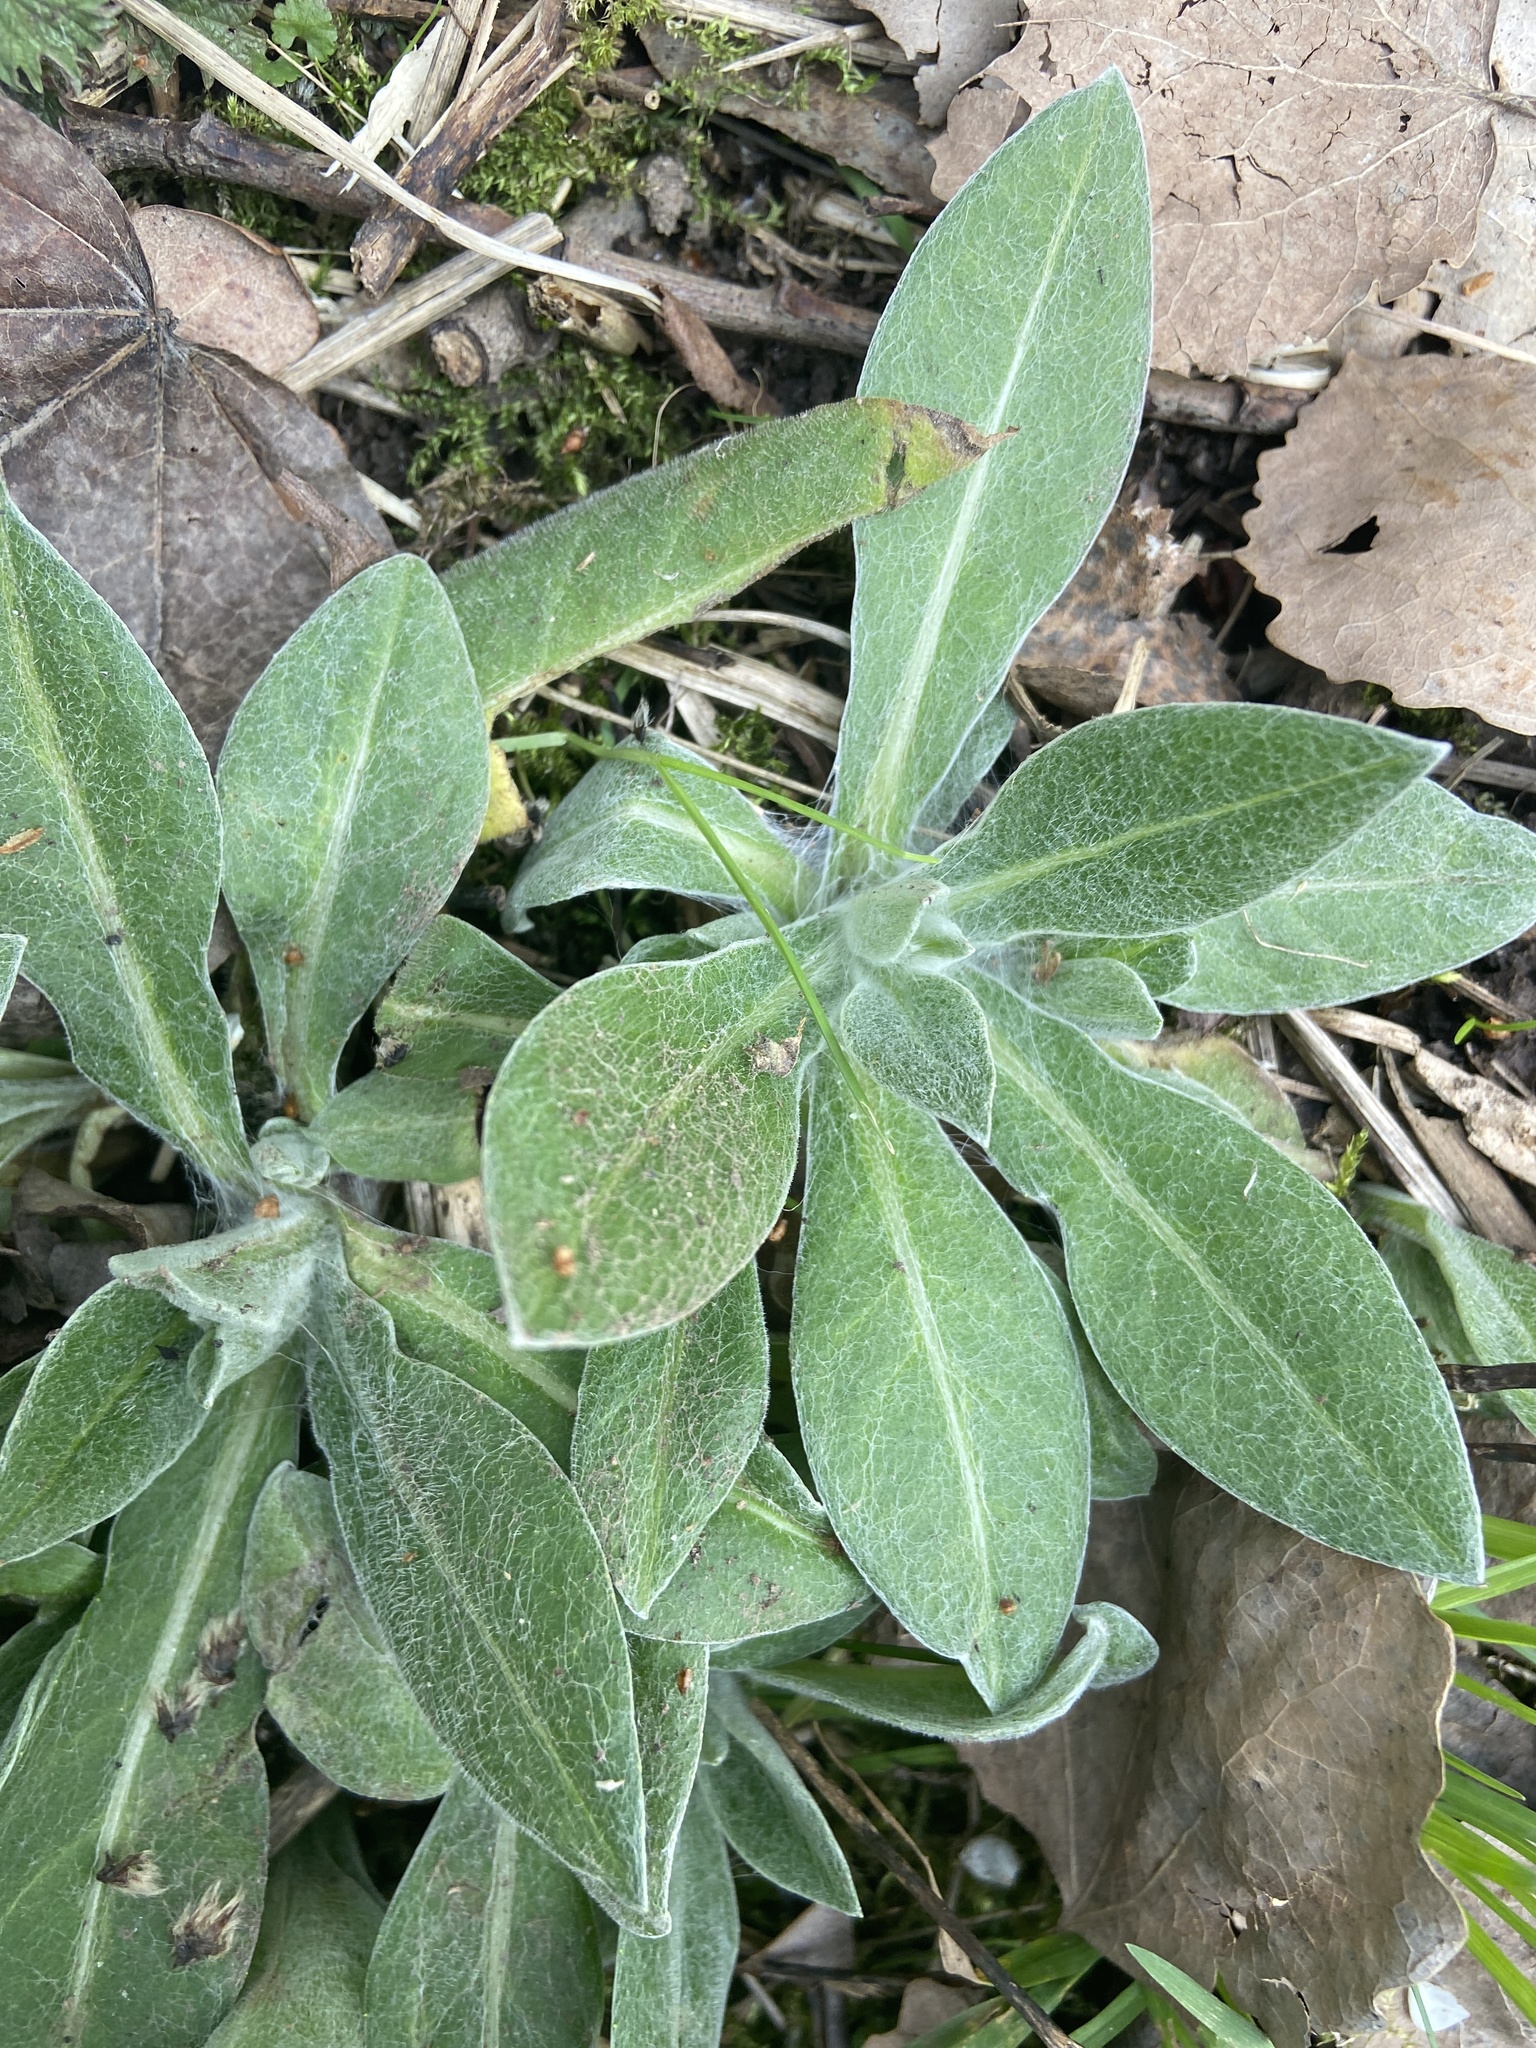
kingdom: Plantae
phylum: Tracheophyta
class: Magnoliopsida
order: Asterales
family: Asteraceae
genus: Centaurea
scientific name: Centaurea montana
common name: Perennial cornflower
